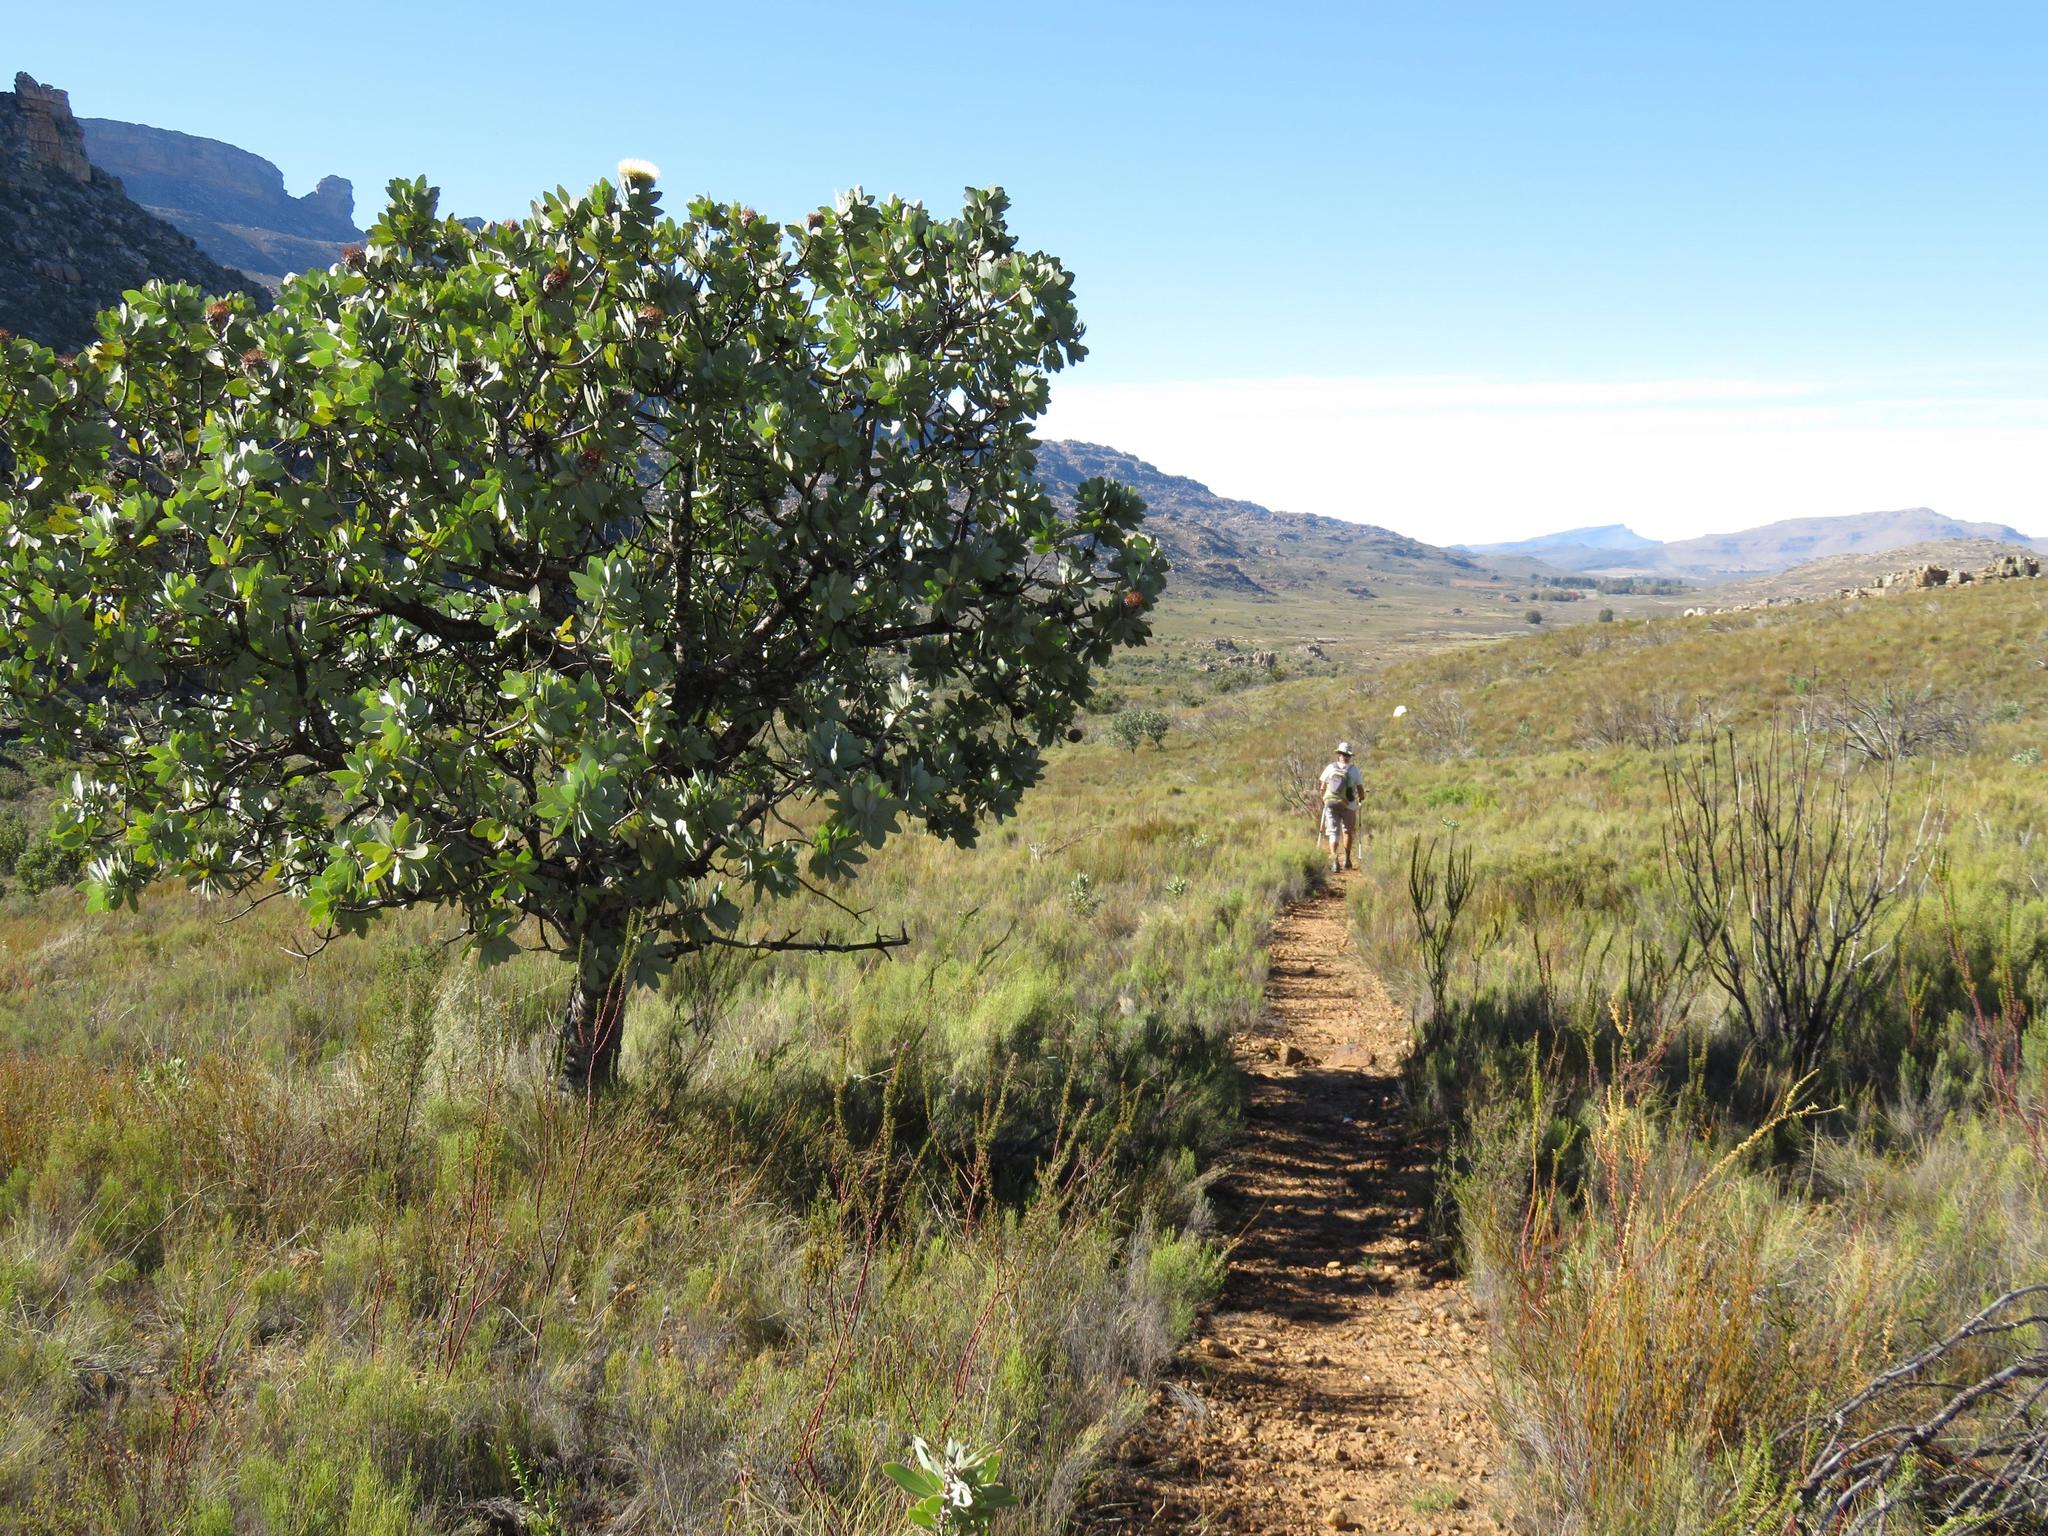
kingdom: Plantae
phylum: Tracheophyta
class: Magnoliopsida
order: Proteales
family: Proteaceae
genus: Protea
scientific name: Protea nitida
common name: Tree protea
